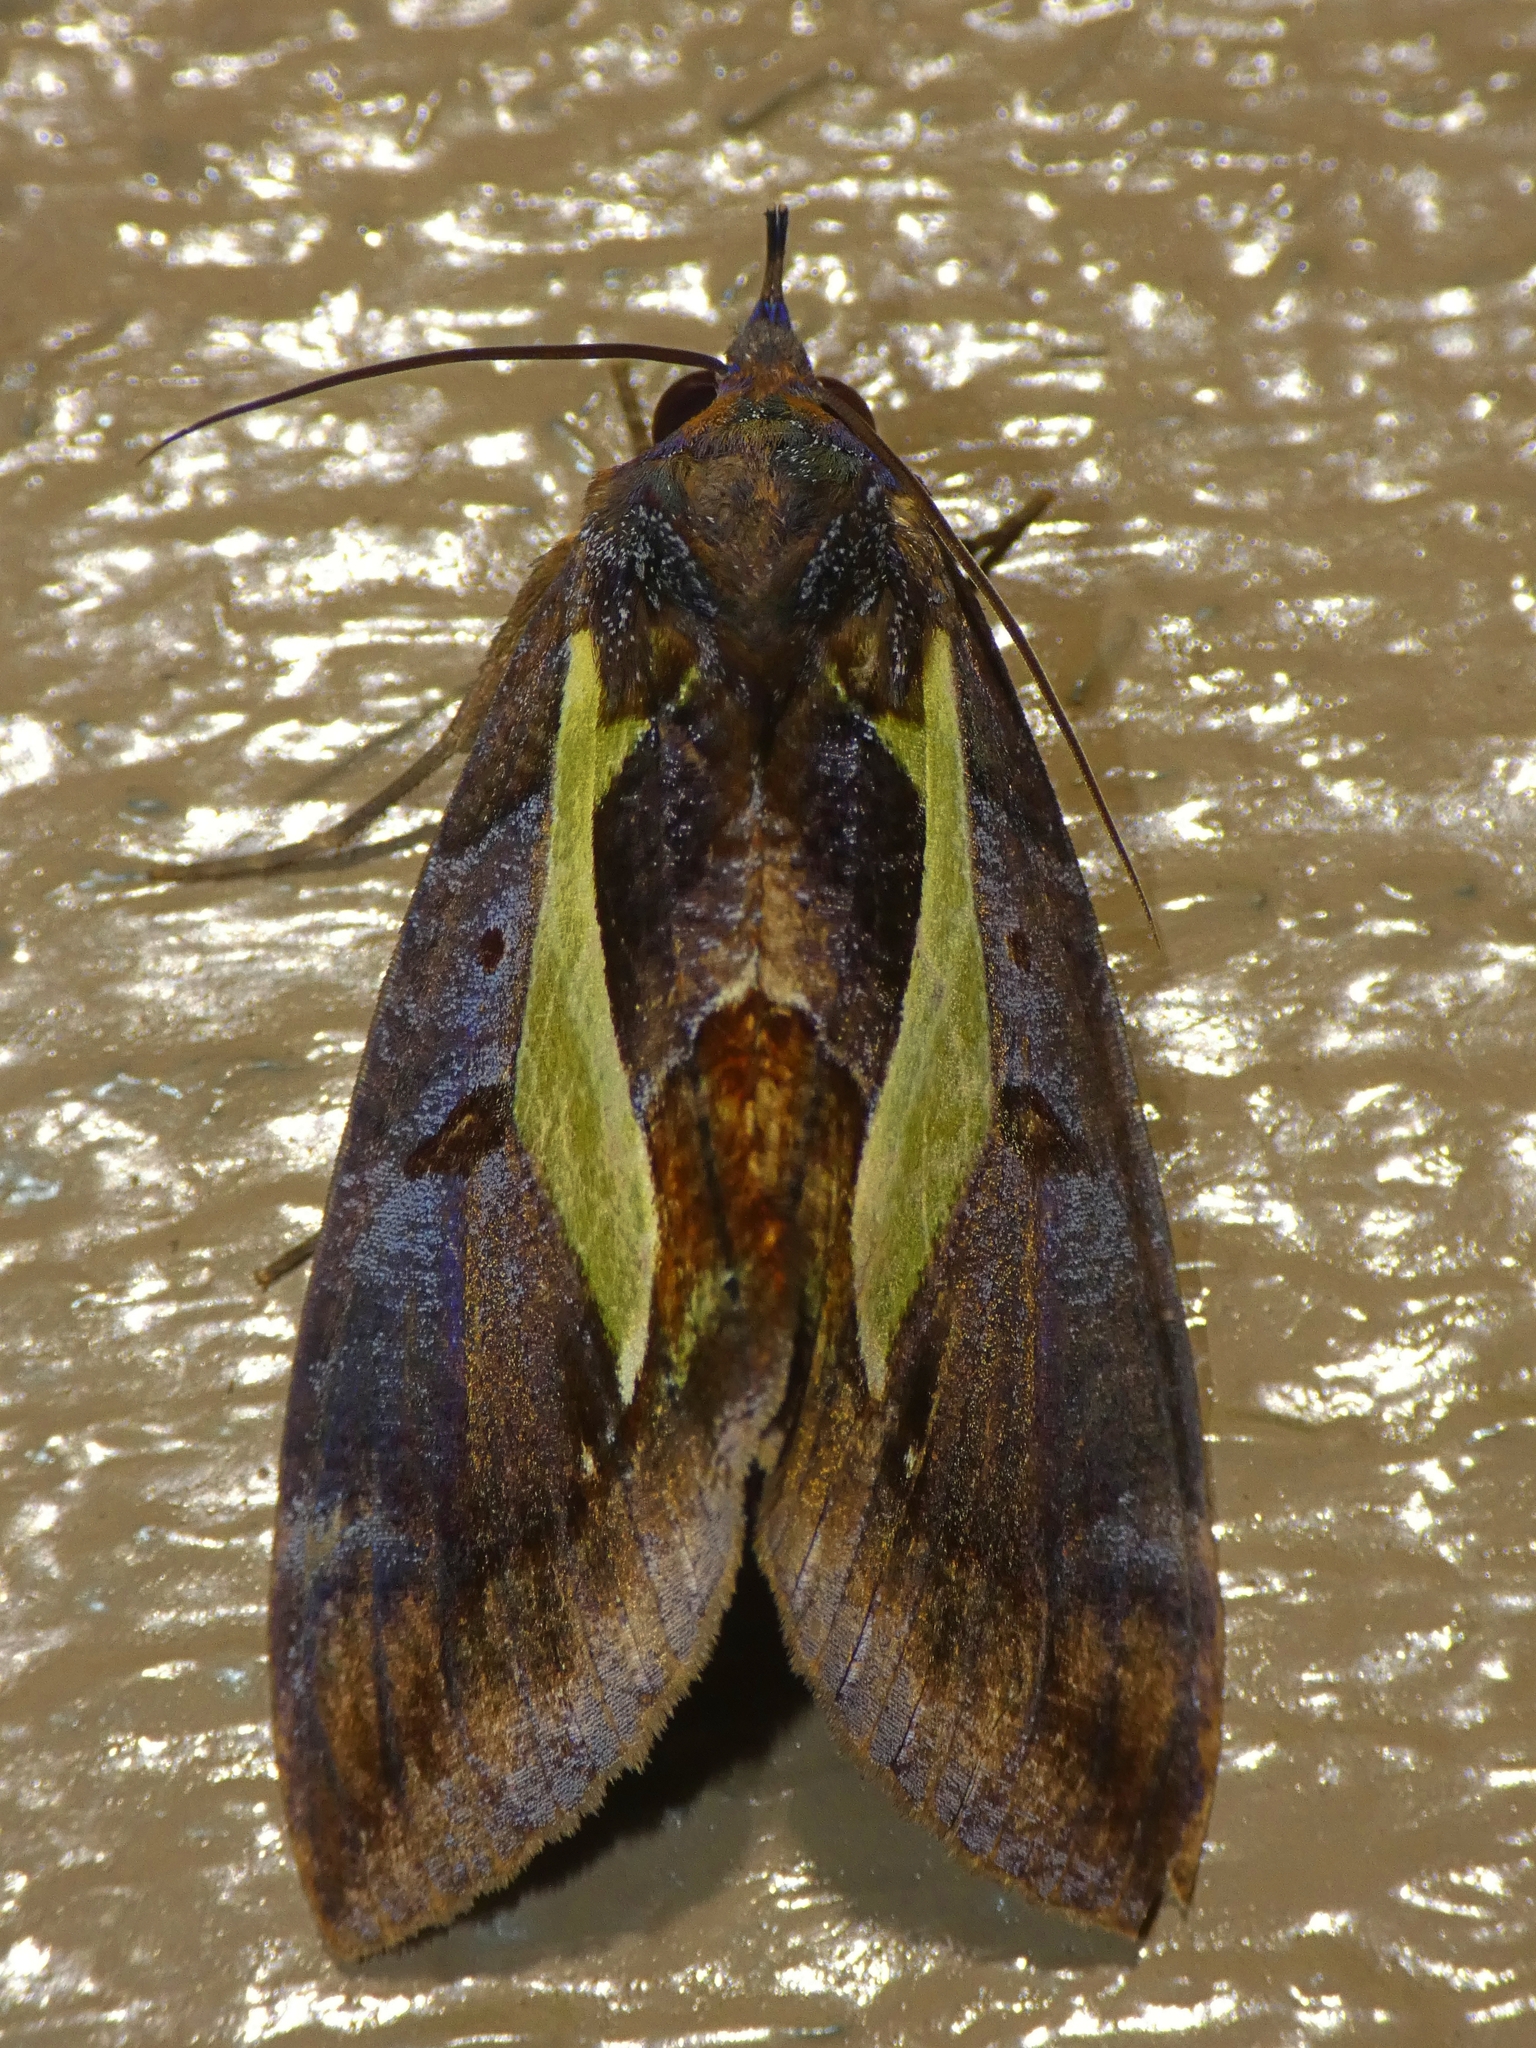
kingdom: Animalia
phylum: Arthropoda
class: Insecta
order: Lepidoptera
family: Erebidae
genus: Eudocima
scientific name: Eudocima iridescens
